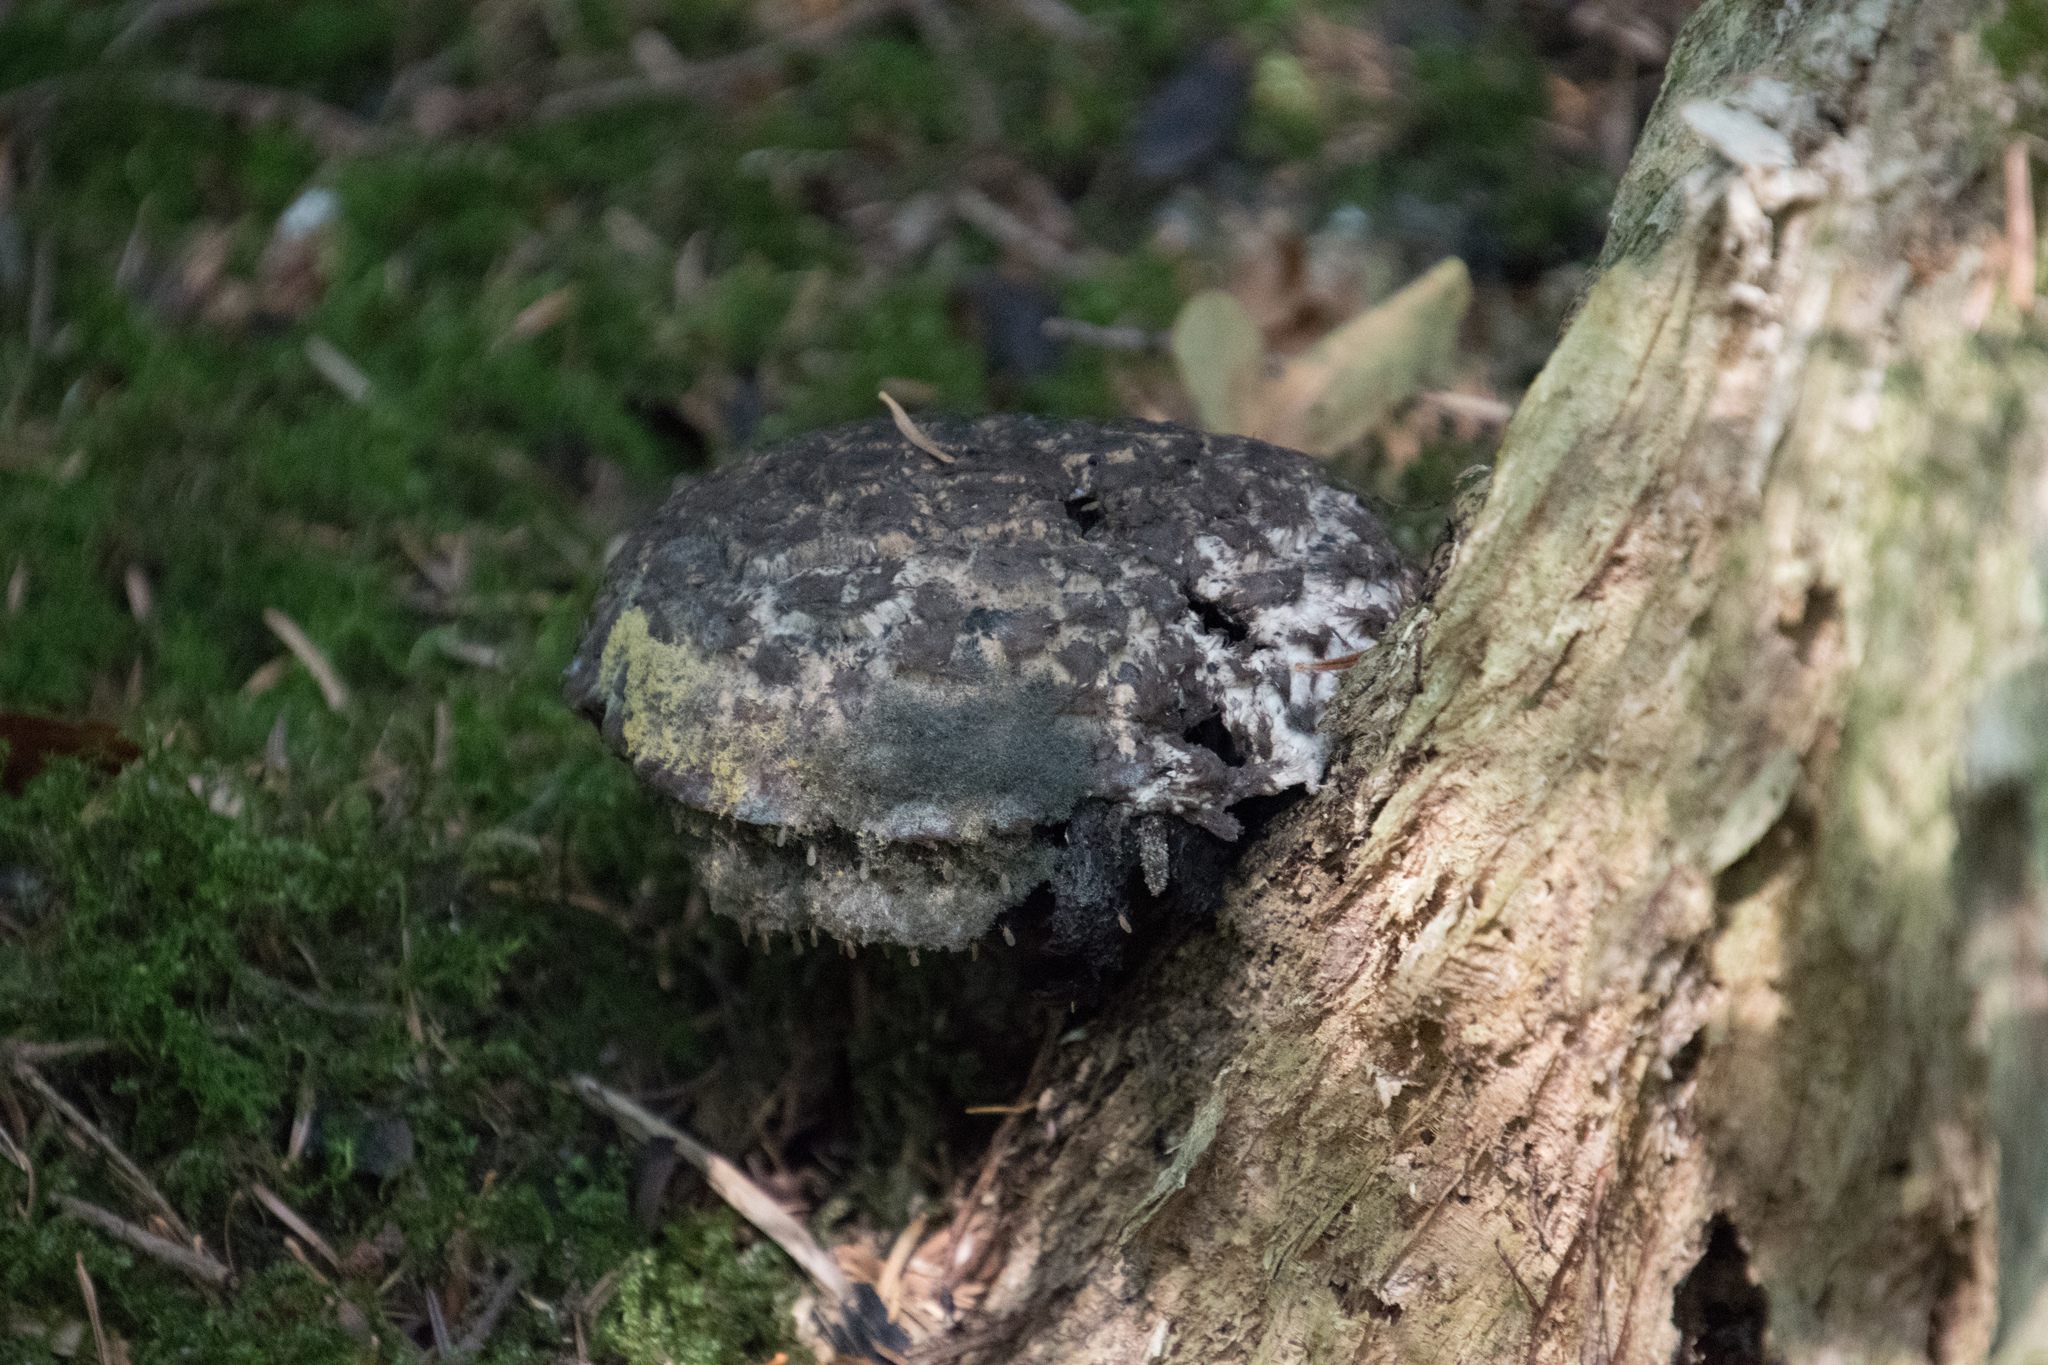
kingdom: Fungi
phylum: Basidiomycota
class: Agaricomycetes
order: Boletales
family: Boletaceae
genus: Strobilomyces
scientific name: Strobilomyces strobilaceus
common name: Old man of the woods
